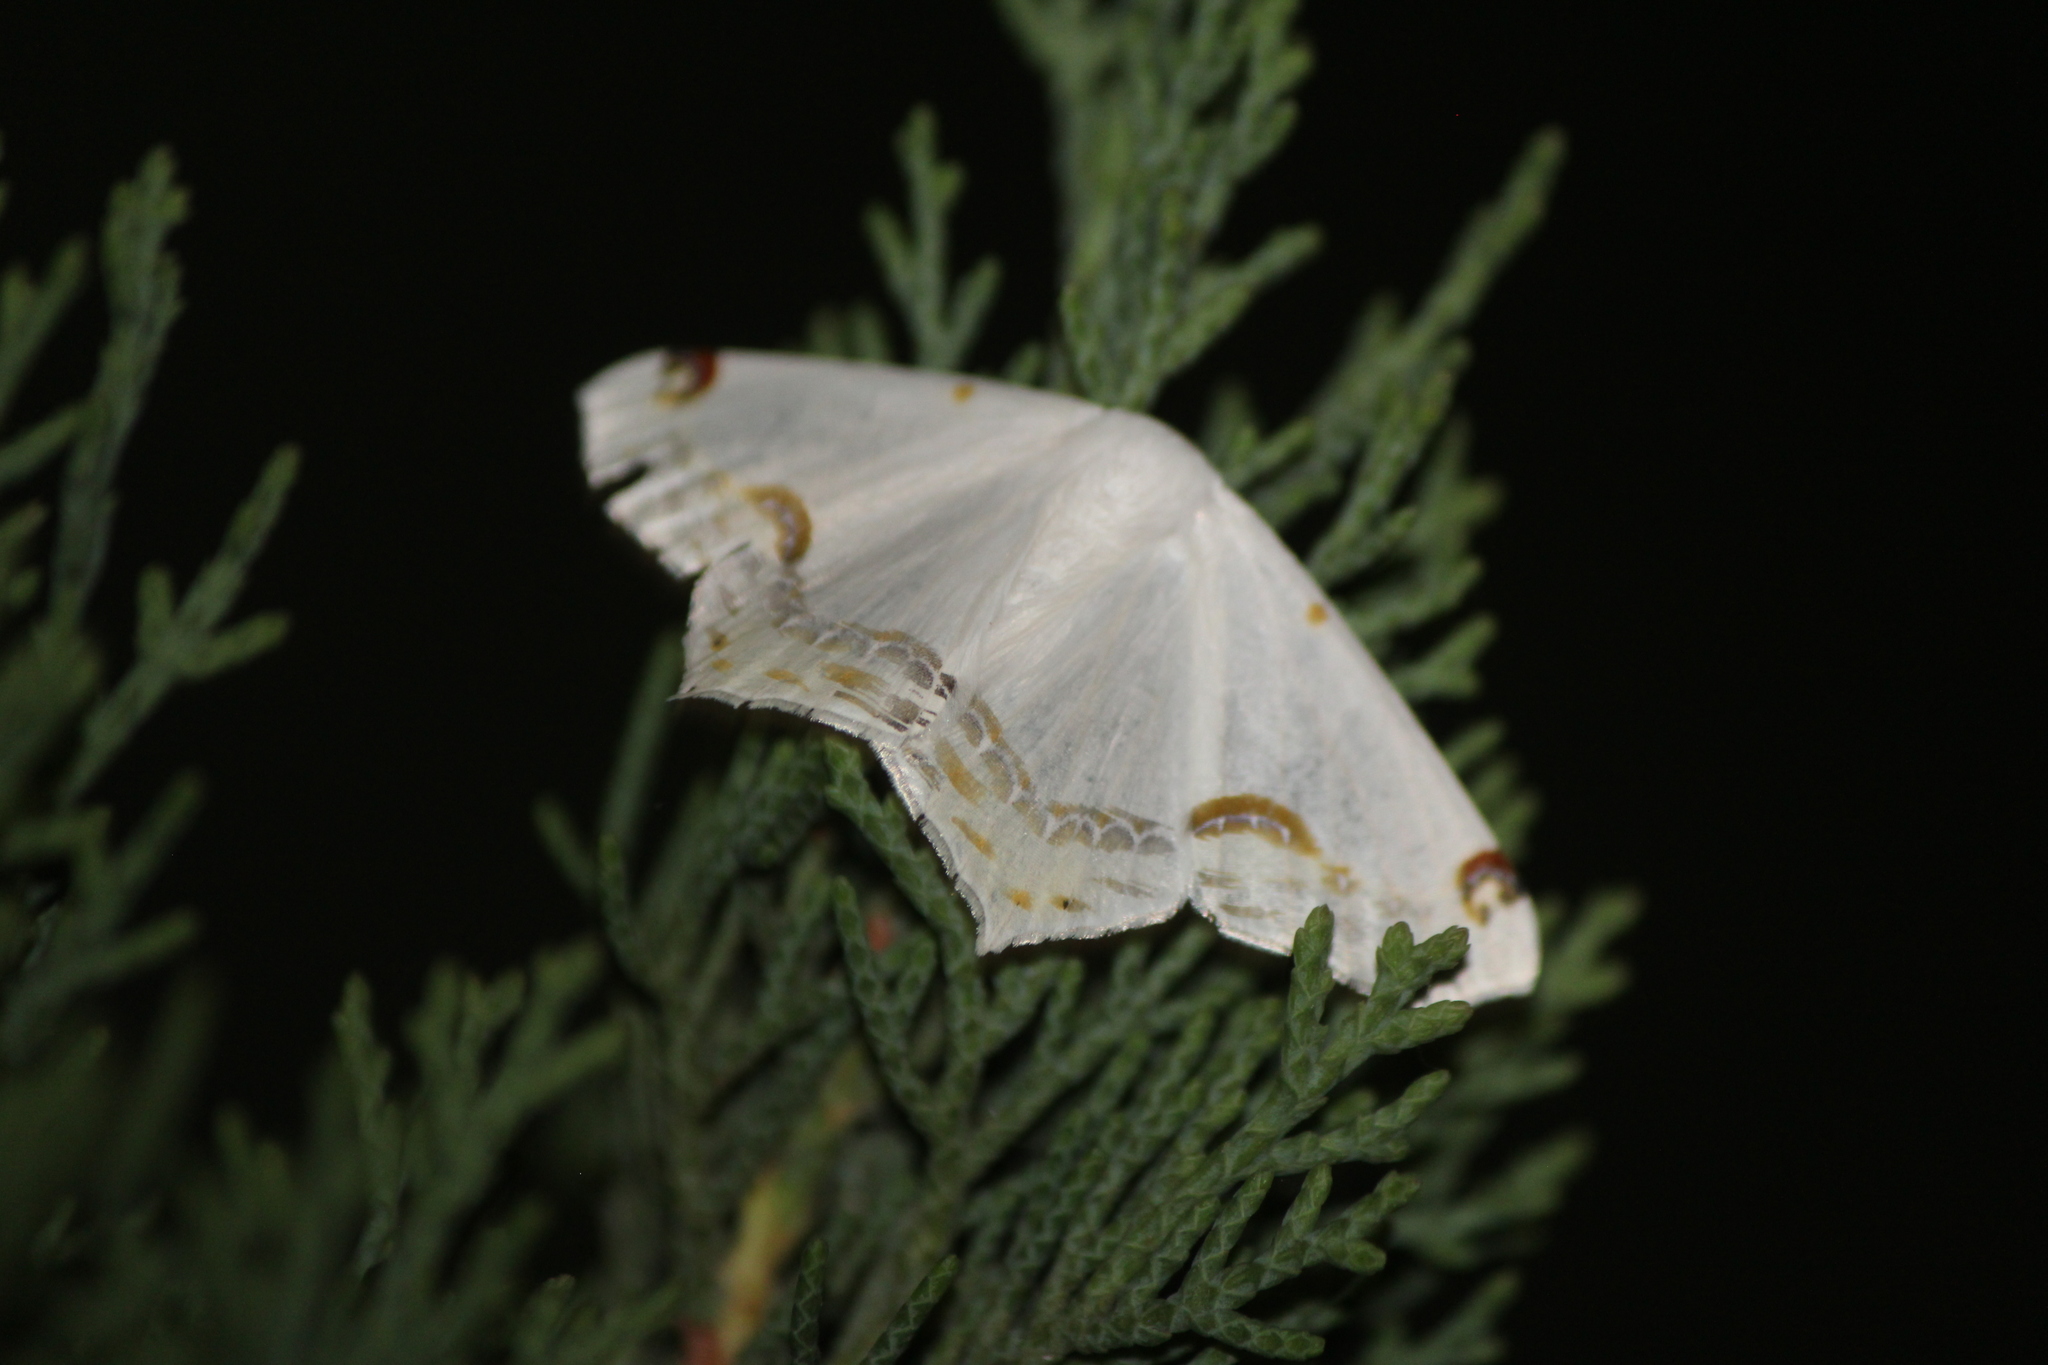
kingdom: Animalia
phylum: Arthropoda
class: Insecta
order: Lepidoptera
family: Geometridae
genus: Sericoptera
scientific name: Sericoptera mahometaria
